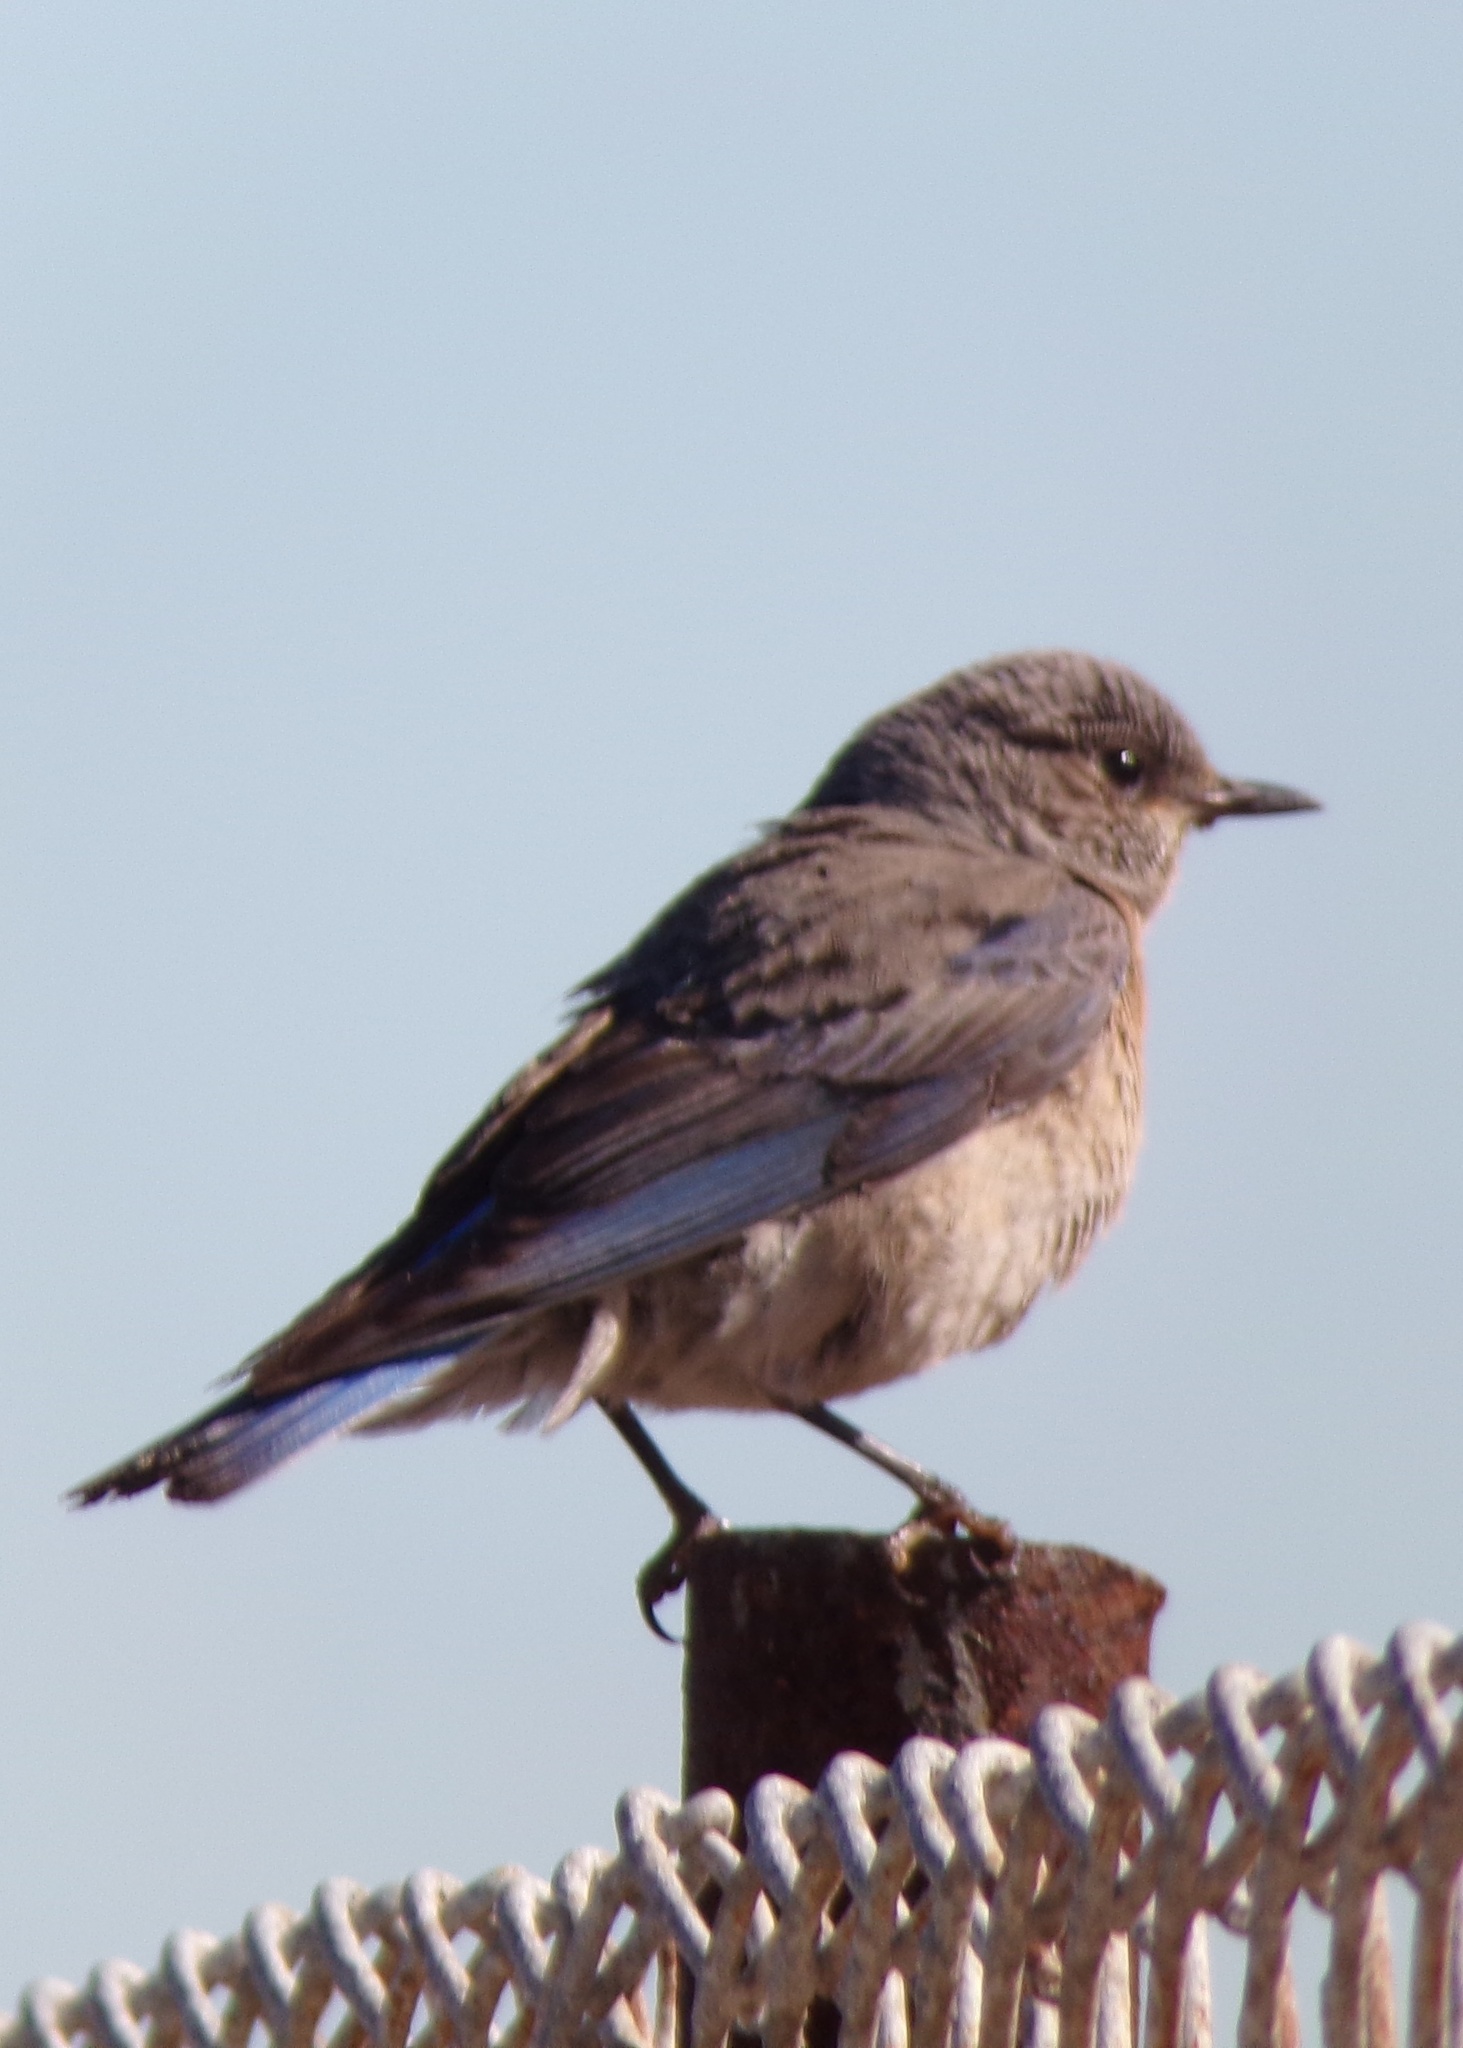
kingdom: Animalia
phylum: Chordata
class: Aves
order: Passeriformes
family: Turdidae
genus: Sialia
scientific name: Sialia mexicana
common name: Western bluebird
